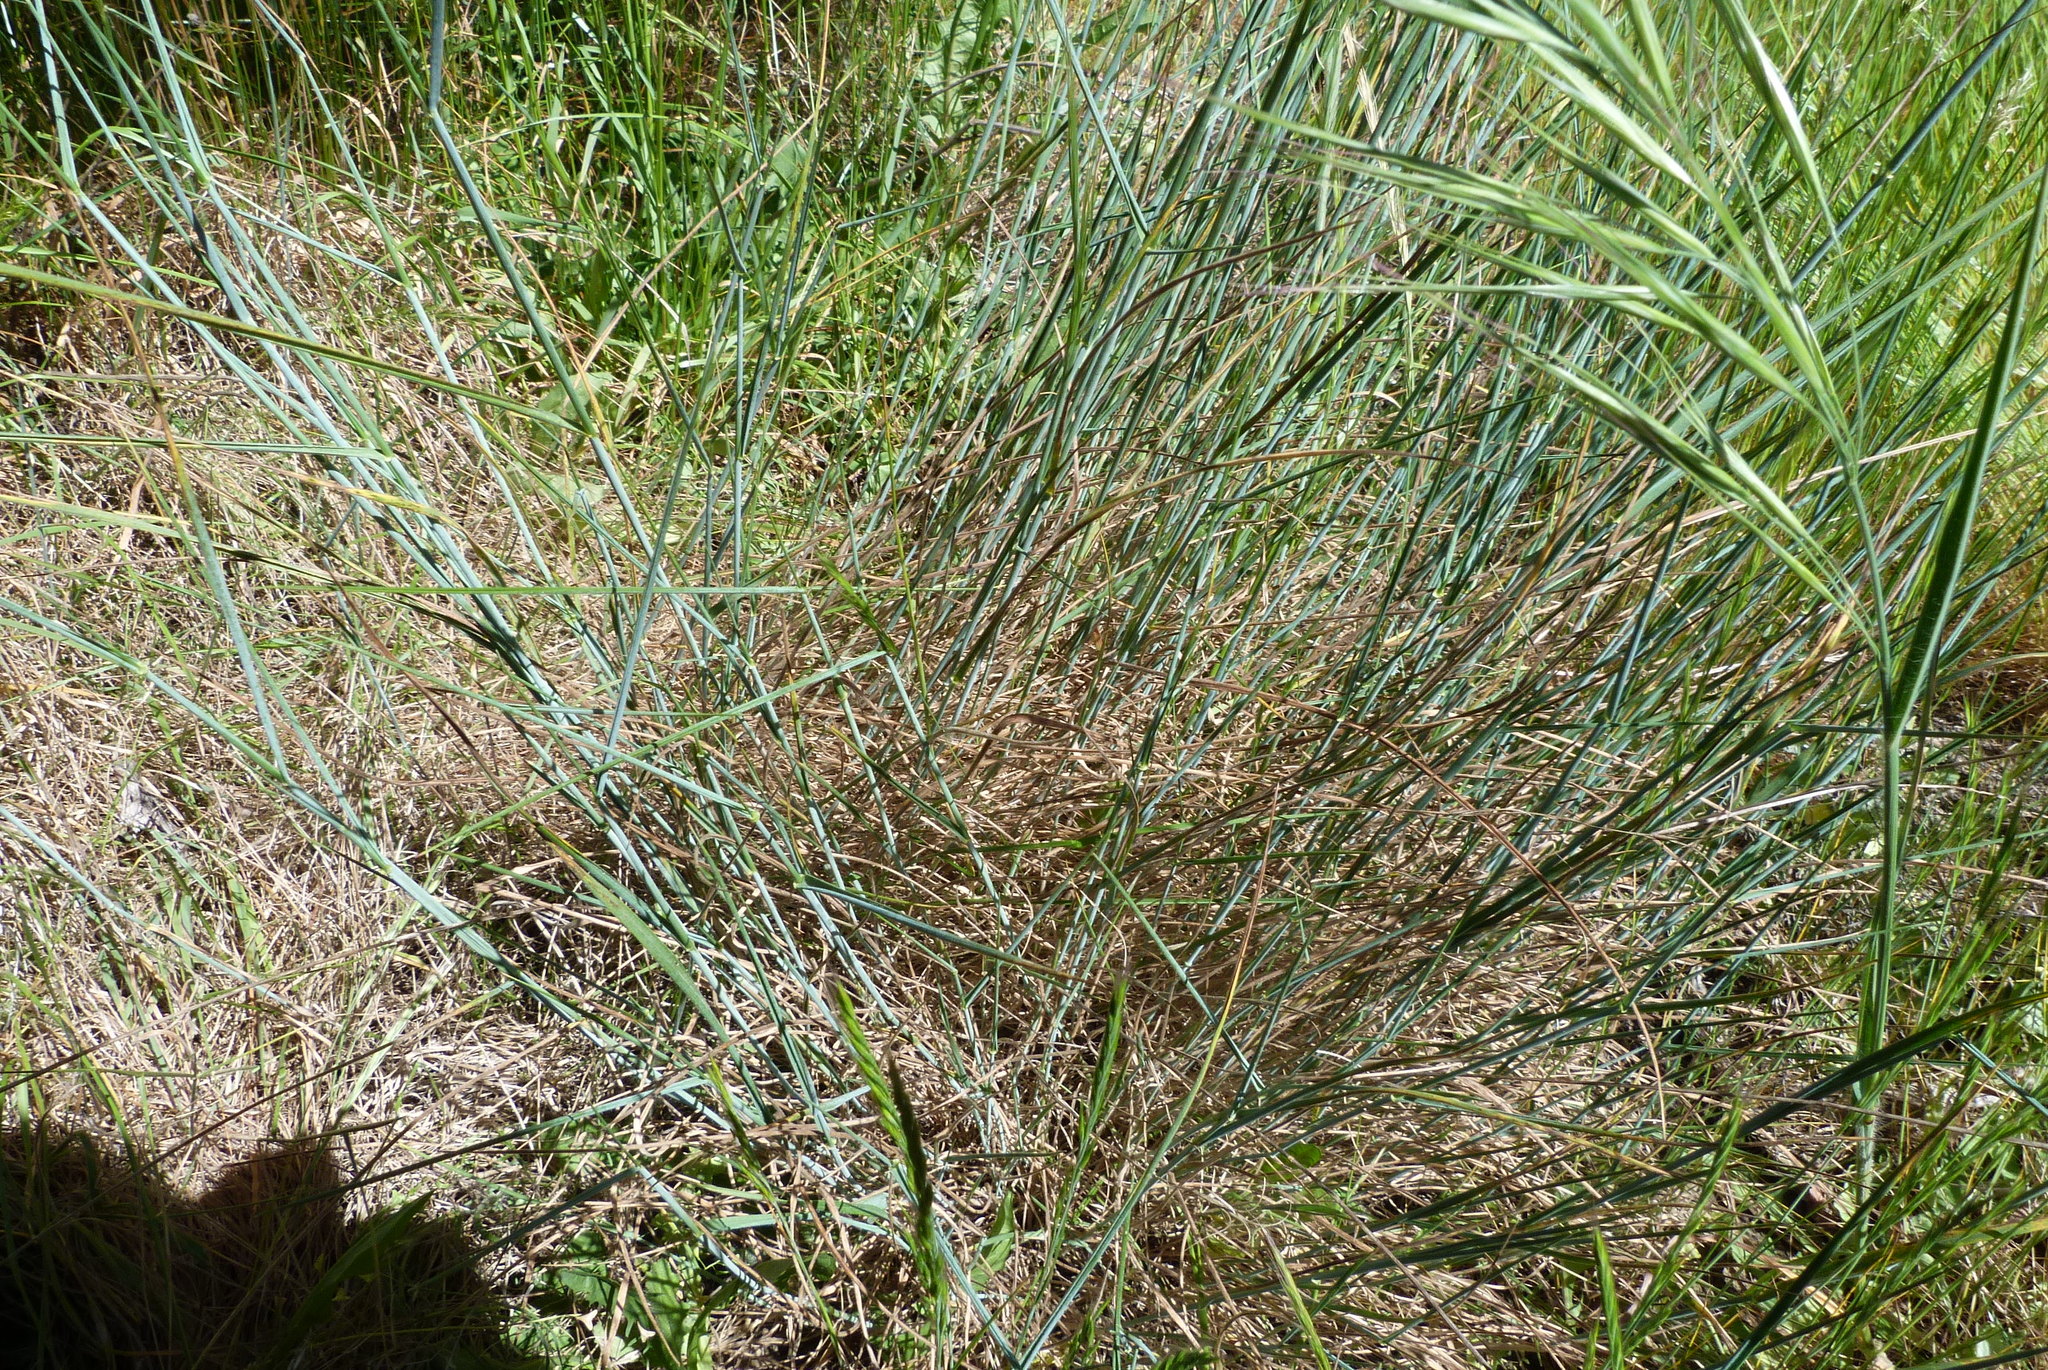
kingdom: Plantae
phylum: Tracheophyta
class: Liliopsida
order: Poales
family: Poaceae
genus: Anthosachne
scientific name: Anthosachne solandri
